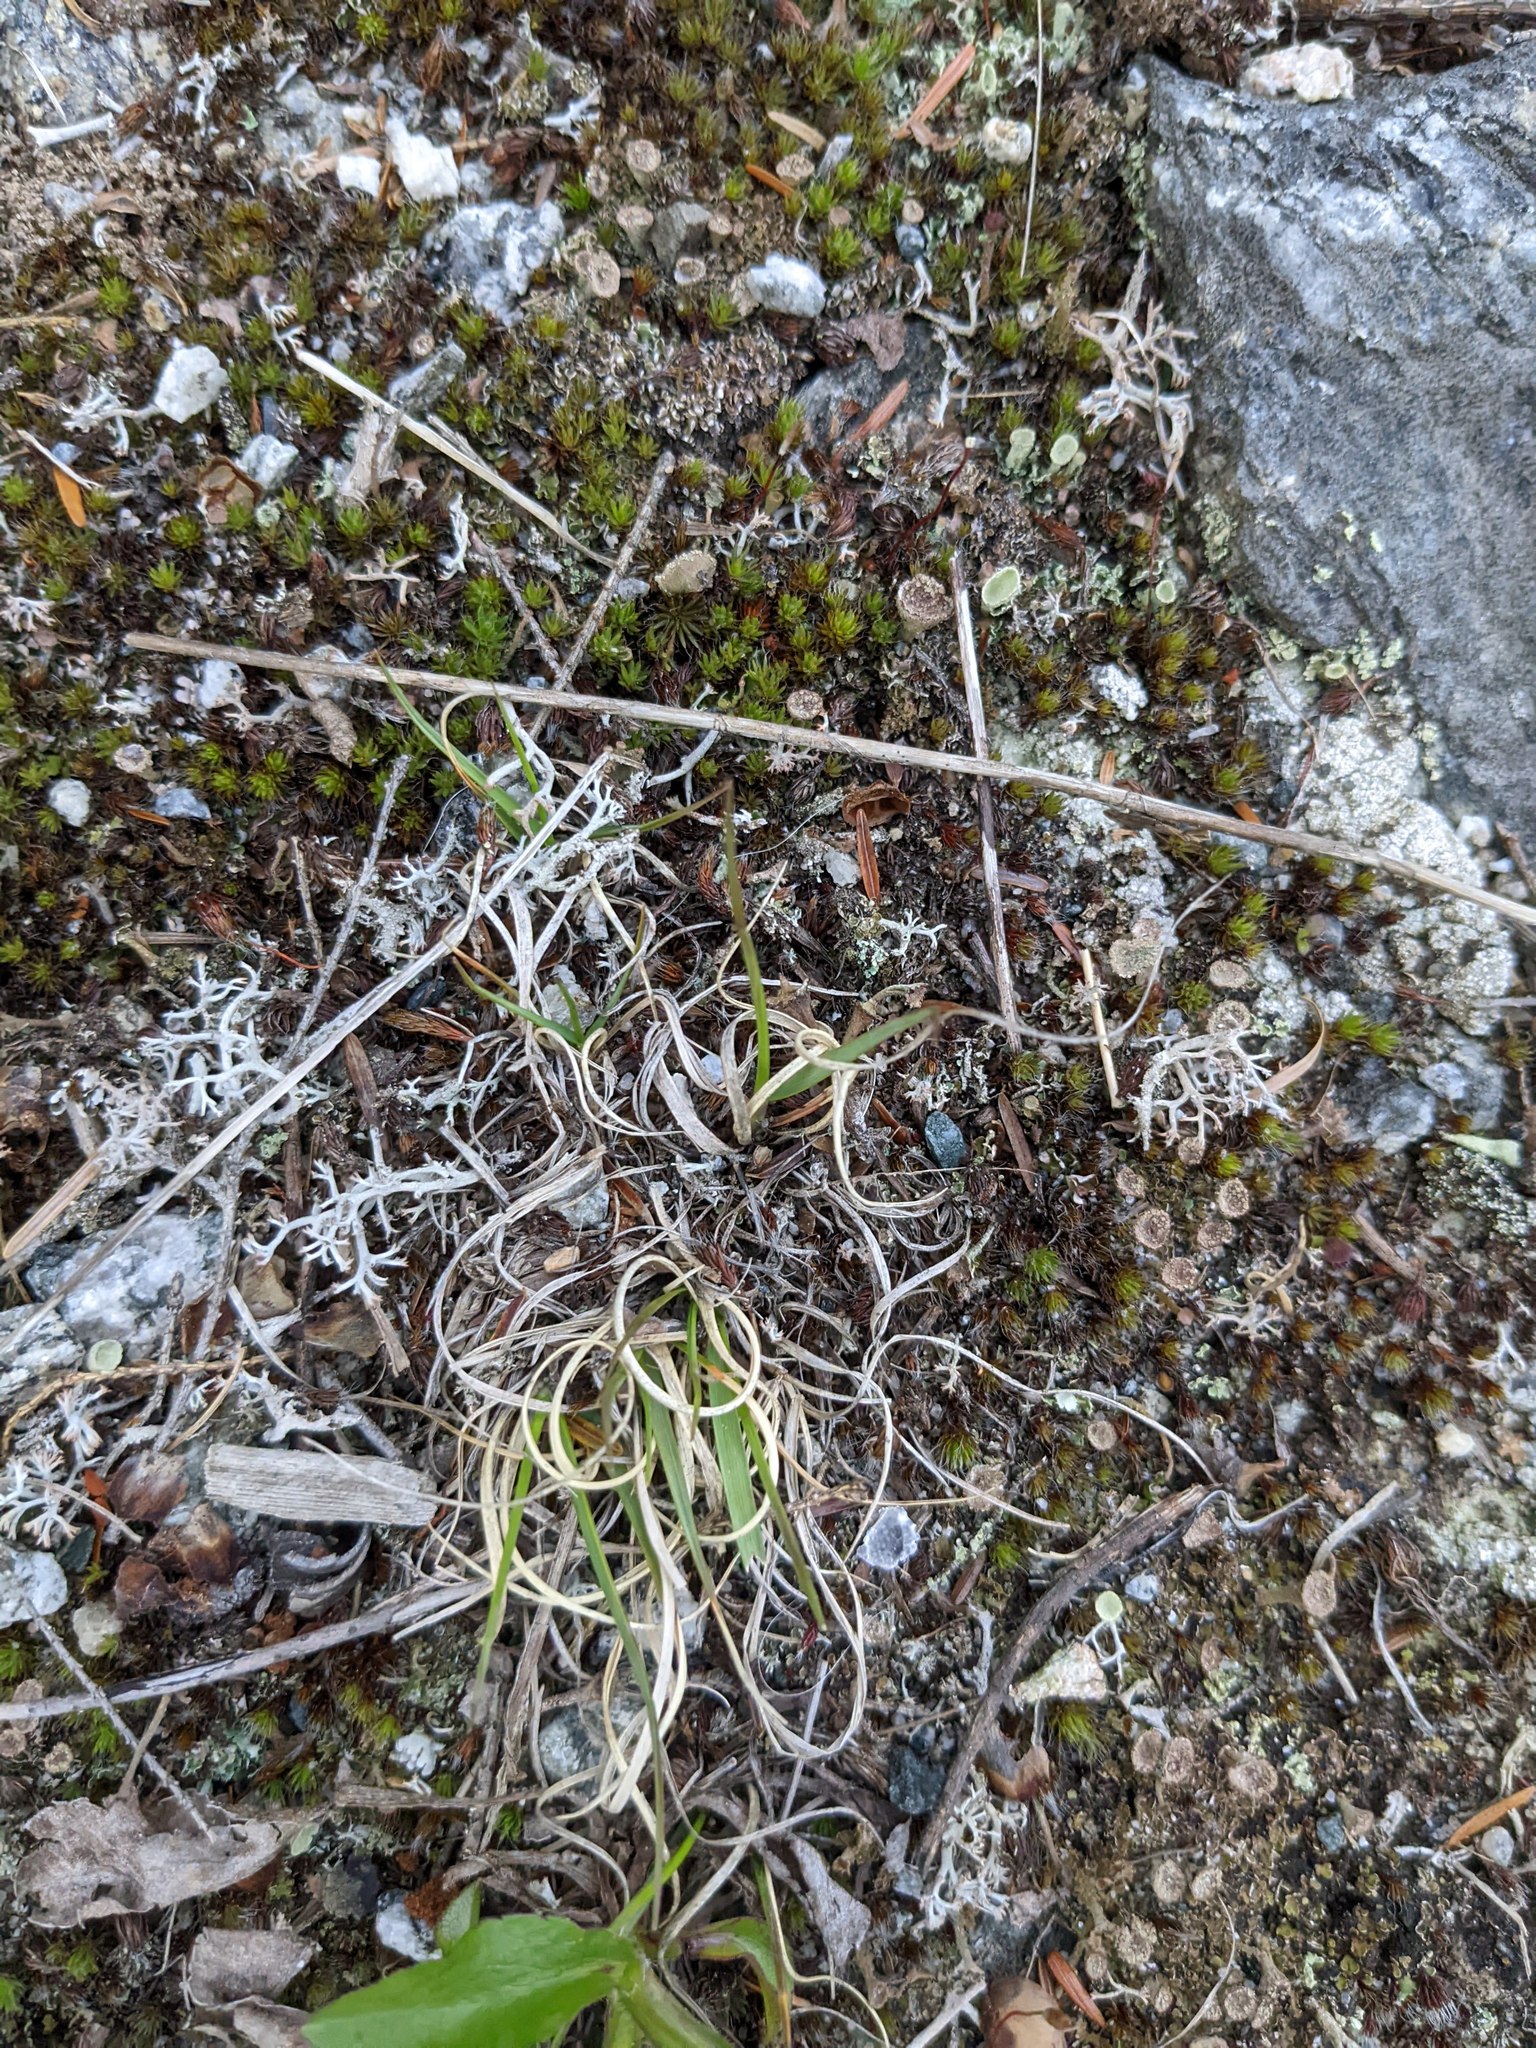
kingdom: Plantae
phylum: Tracheophyta
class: Liliopsida
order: Poales
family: Poaceae
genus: Danthonia
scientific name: Danthonia spicata
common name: Common wild oatgrass
